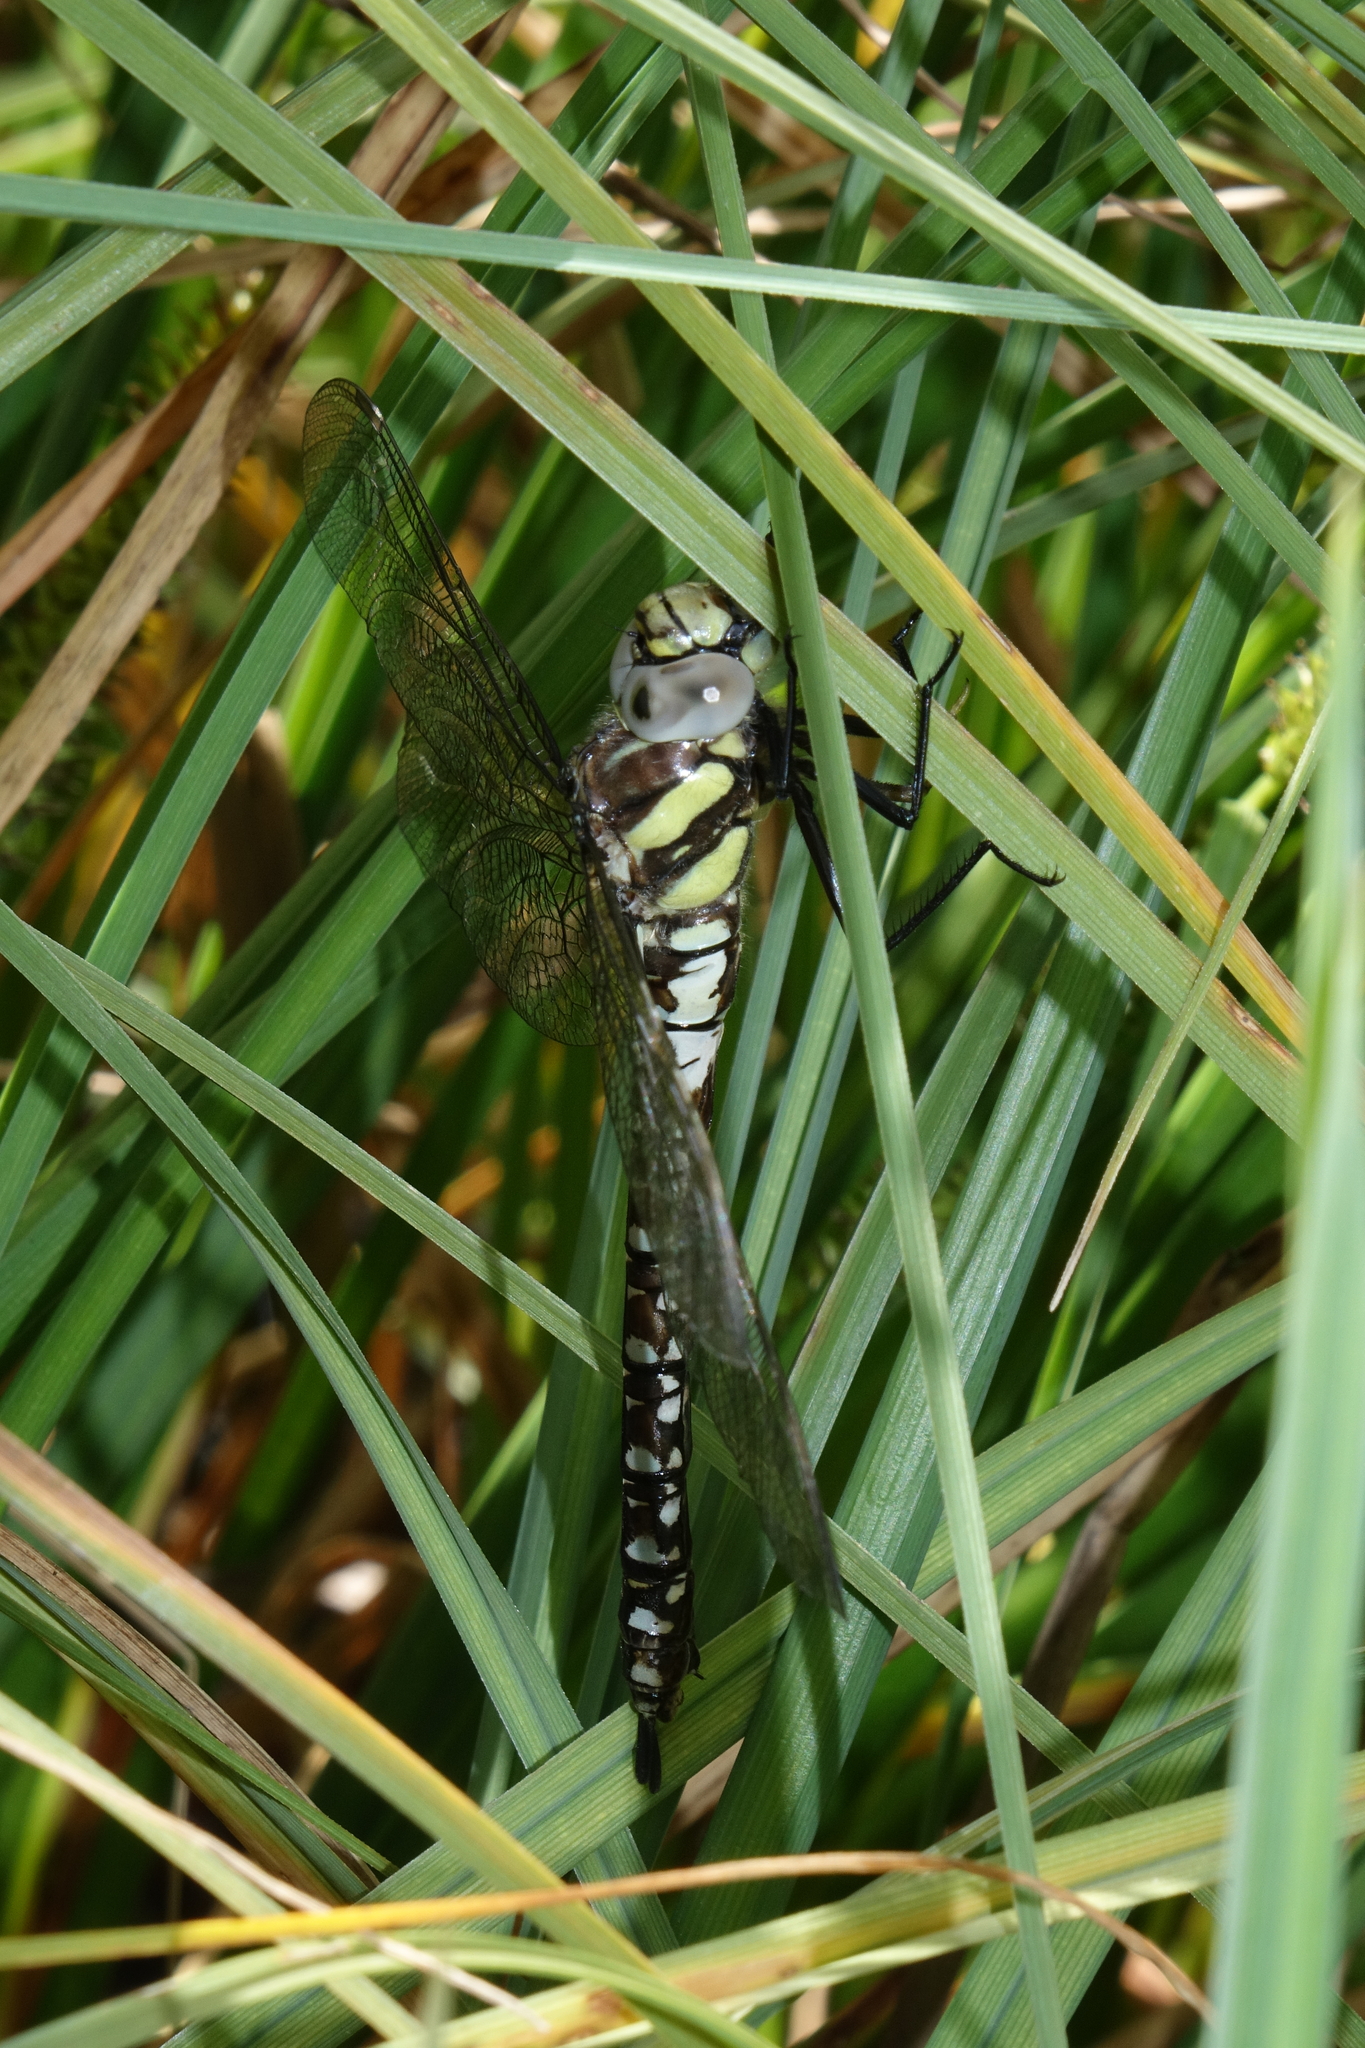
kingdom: Animalia
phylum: Arthropoda
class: Insecta
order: Odonata
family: Aeshnidae
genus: Aeshna
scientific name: Aeshna juncea
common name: Moorland hawker
